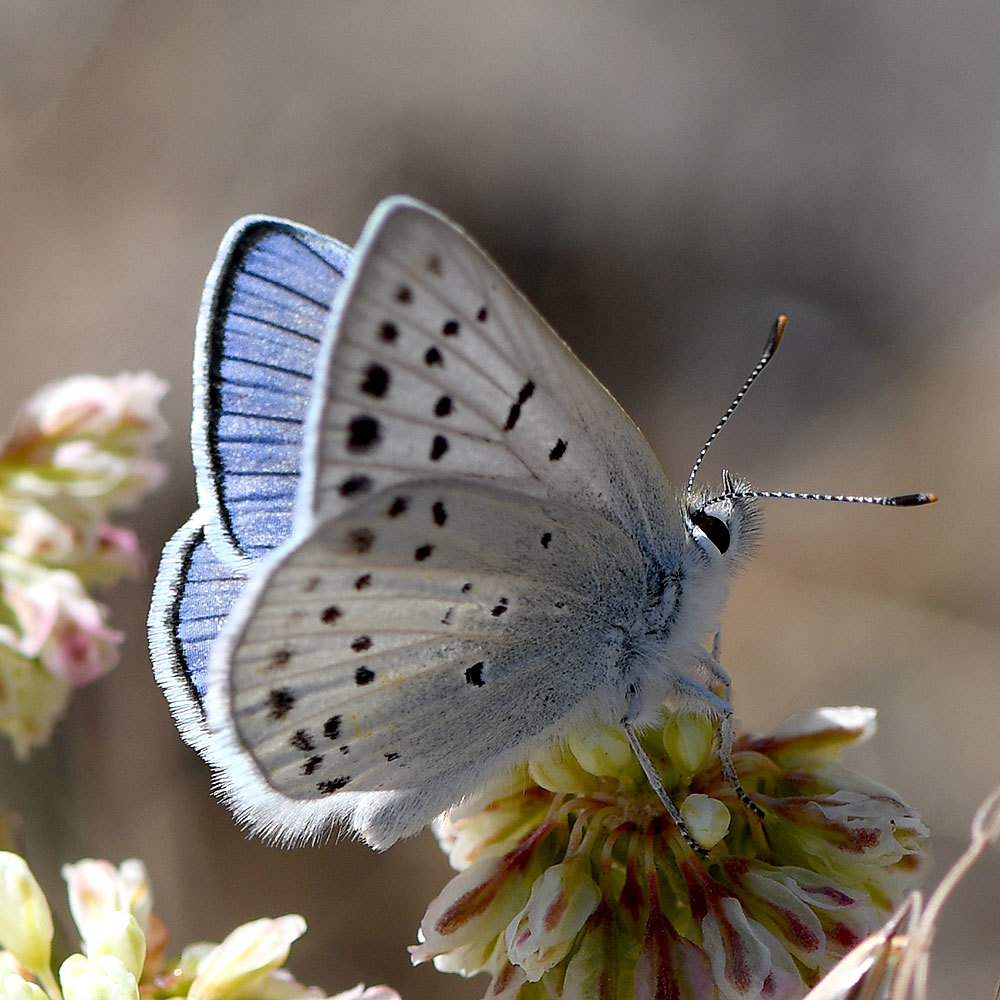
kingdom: Animalia
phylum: Arthropoda
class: Insecta
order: Lepidoptera
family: Lycaenidae
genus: Tharsalea
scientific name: Tharsalea heteronea
